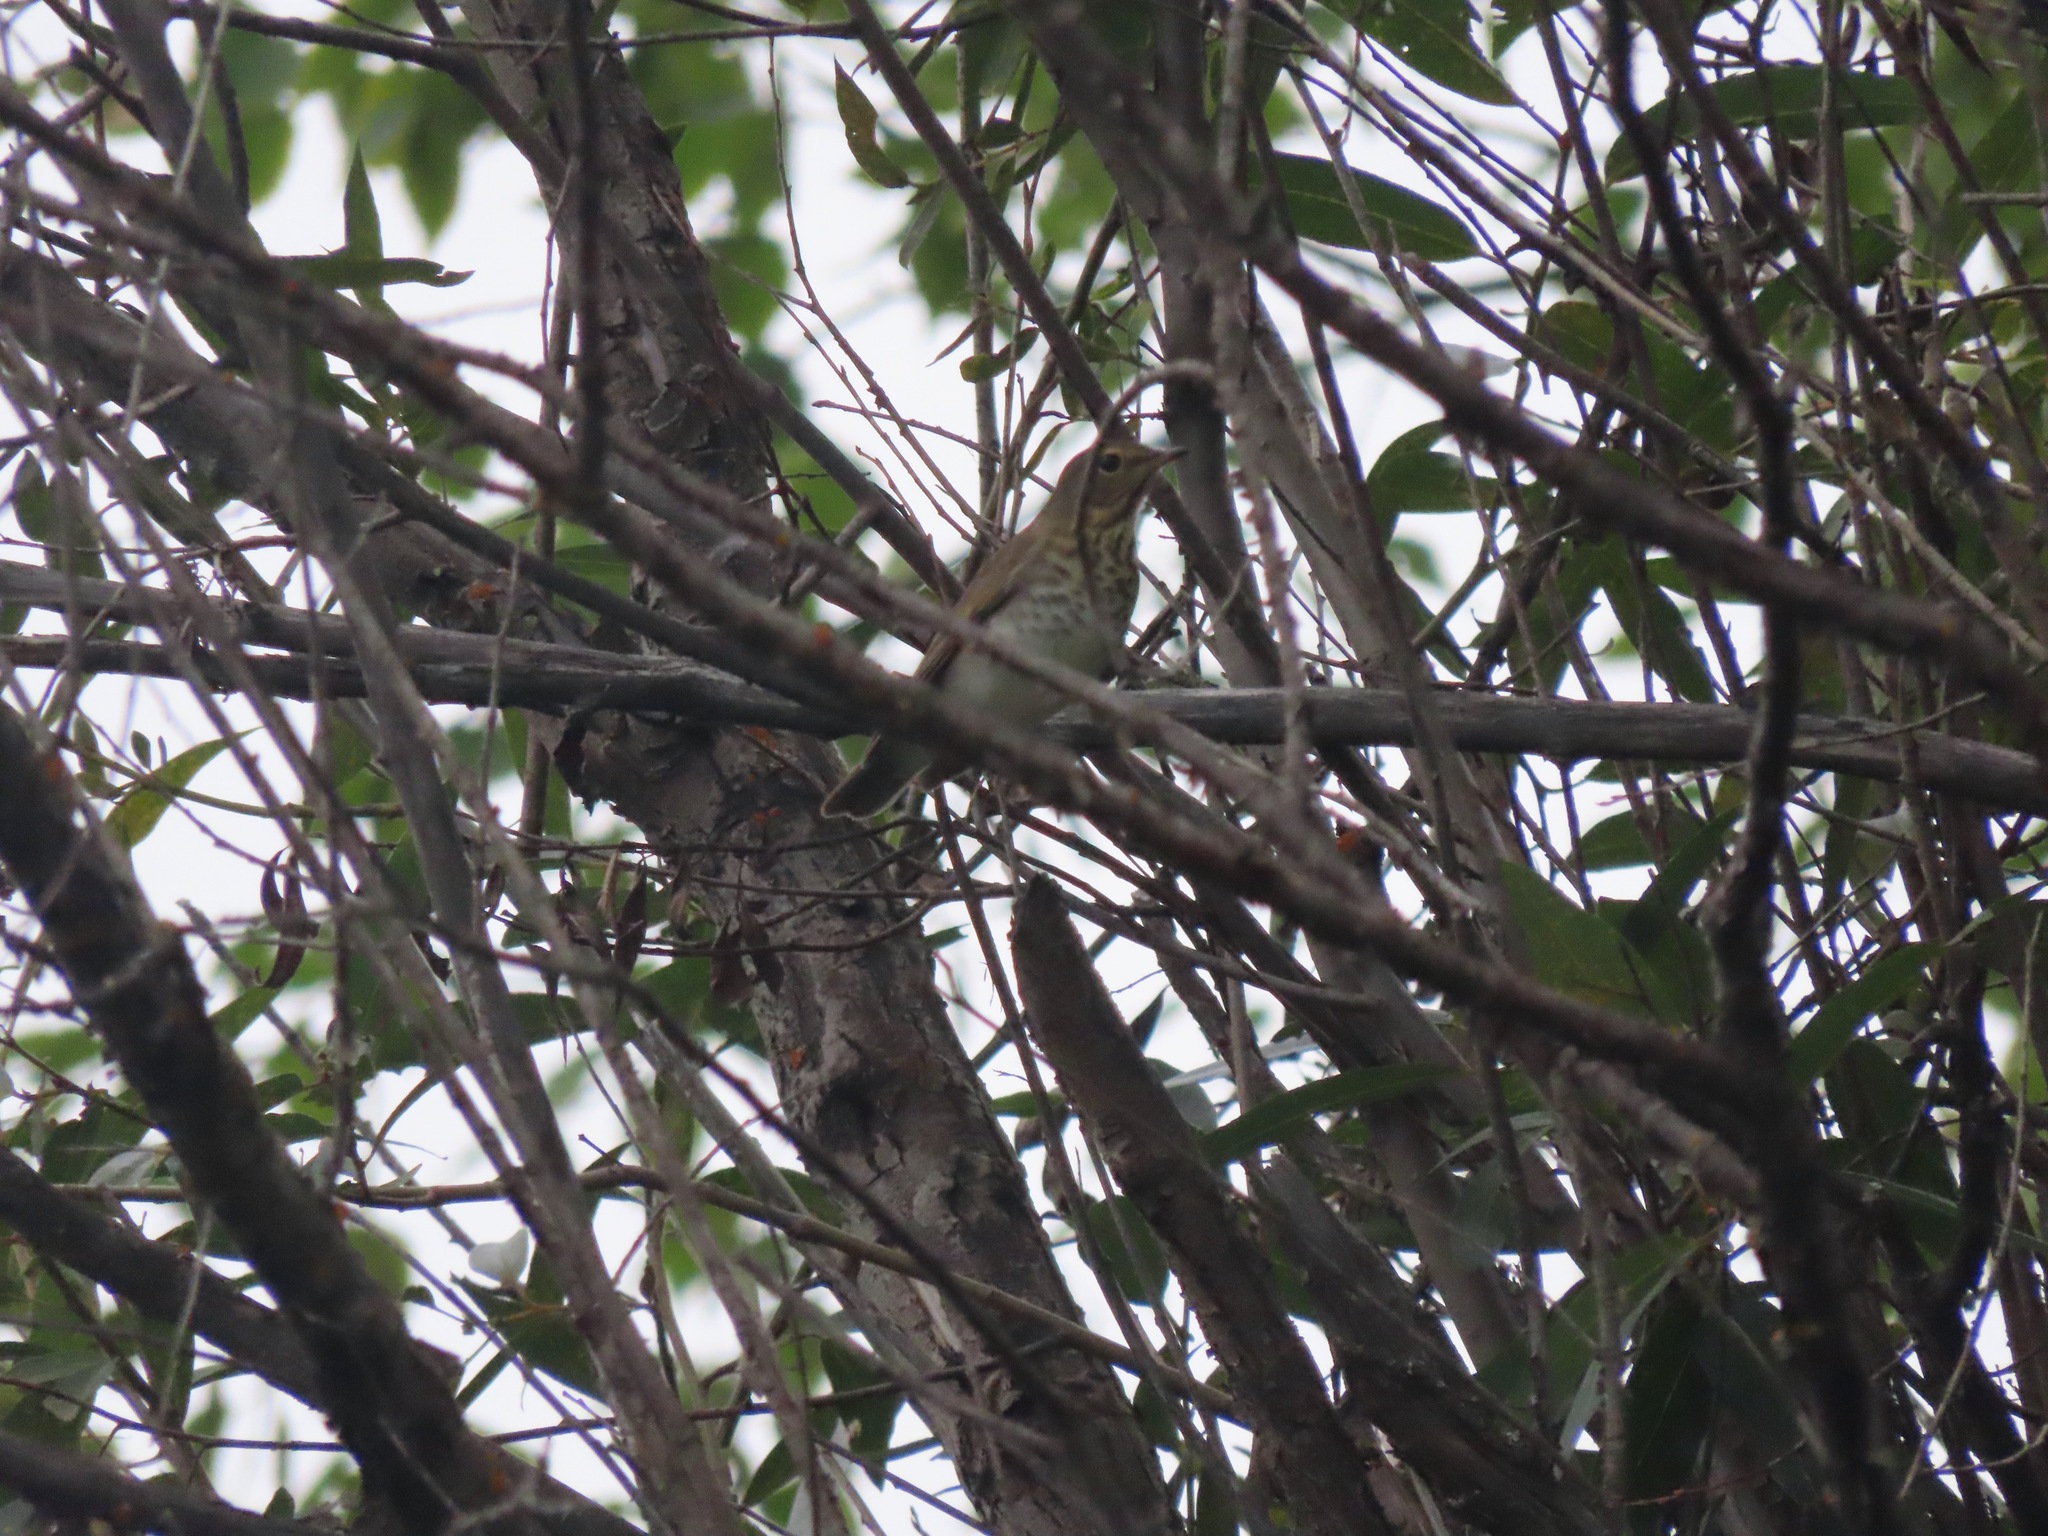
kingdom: Animalia
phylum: Chordata
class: Aves
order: Passeriformes
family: Turdidae
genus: Catharus
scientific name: Catharus ustulatus
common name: Swainson's thrush
